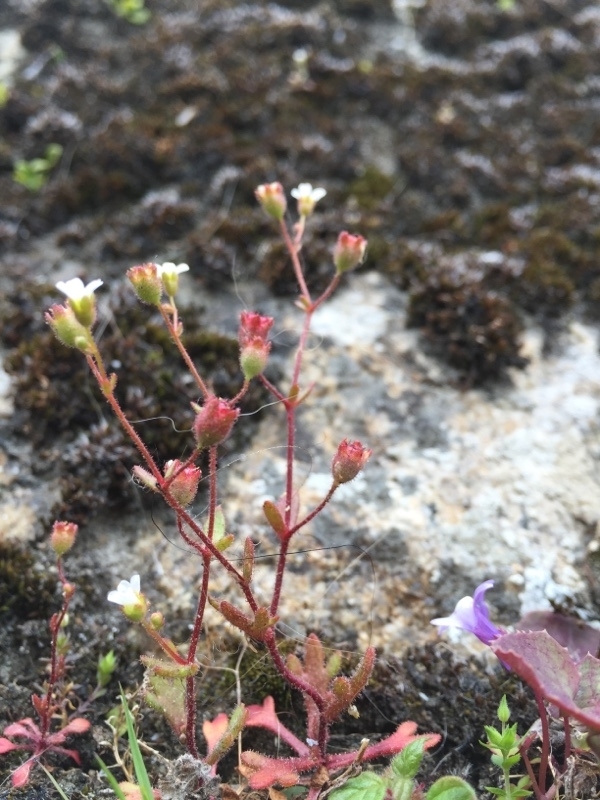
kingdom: Plantae
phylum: Tracheophyta
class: Magnoliopsida
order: Saxifragales
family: Saxifragaceae
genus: Saxifraga
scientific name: Saxifraga tridactylites
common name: Rue-leaved saxifrage
